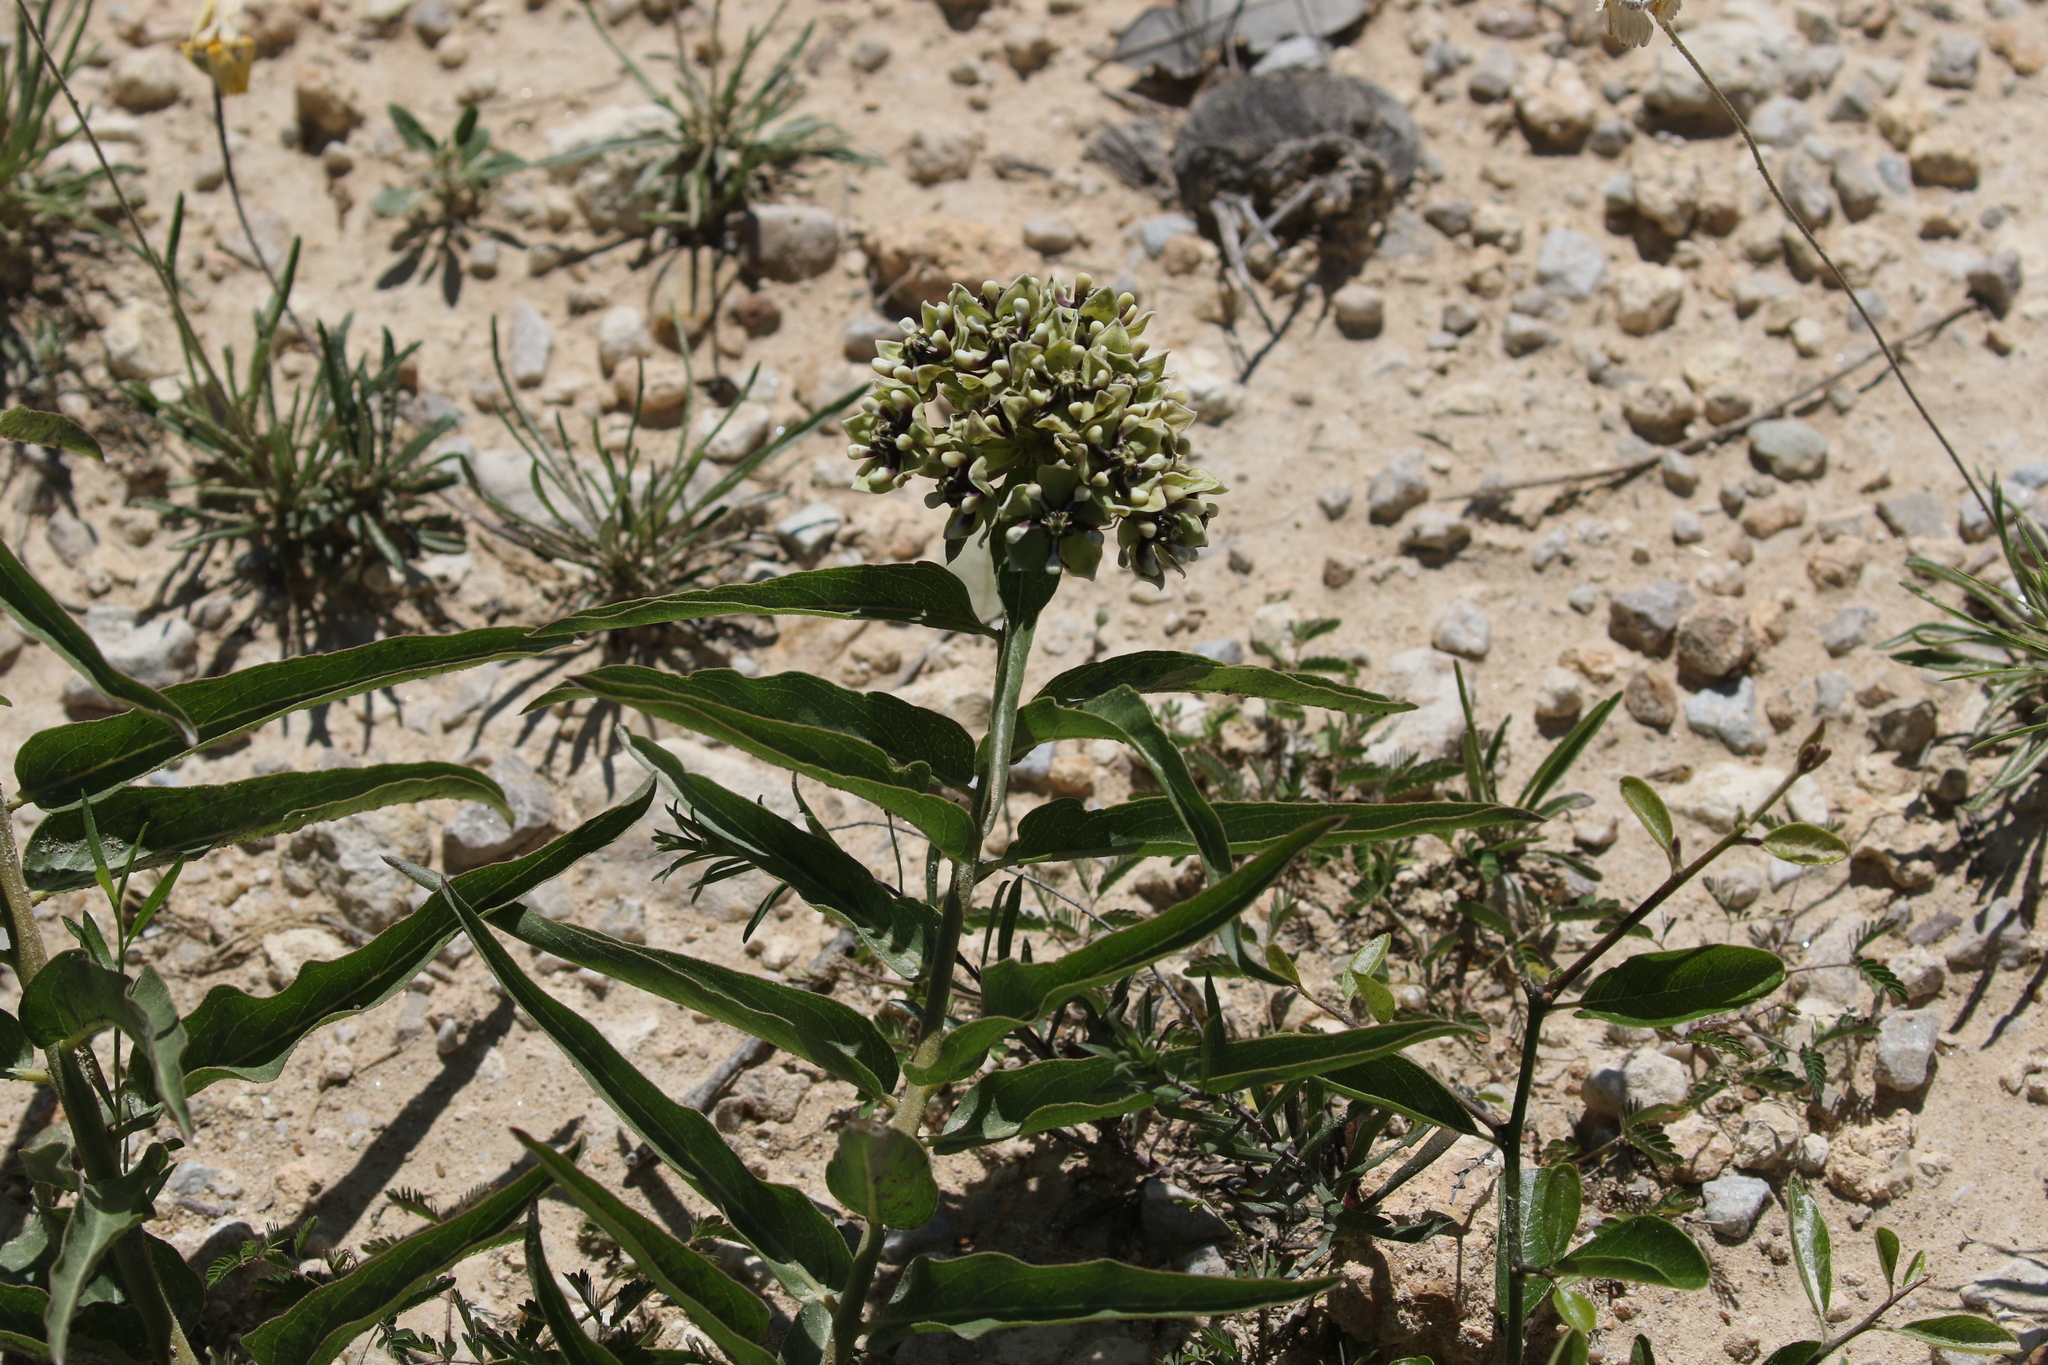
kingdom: Plantae
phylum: Tracheophyta
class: Magnoliopsida
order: Gentianales
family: Apocynaceae
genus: Asclepias
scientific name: Asclepias asperula
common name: Antelope horns
